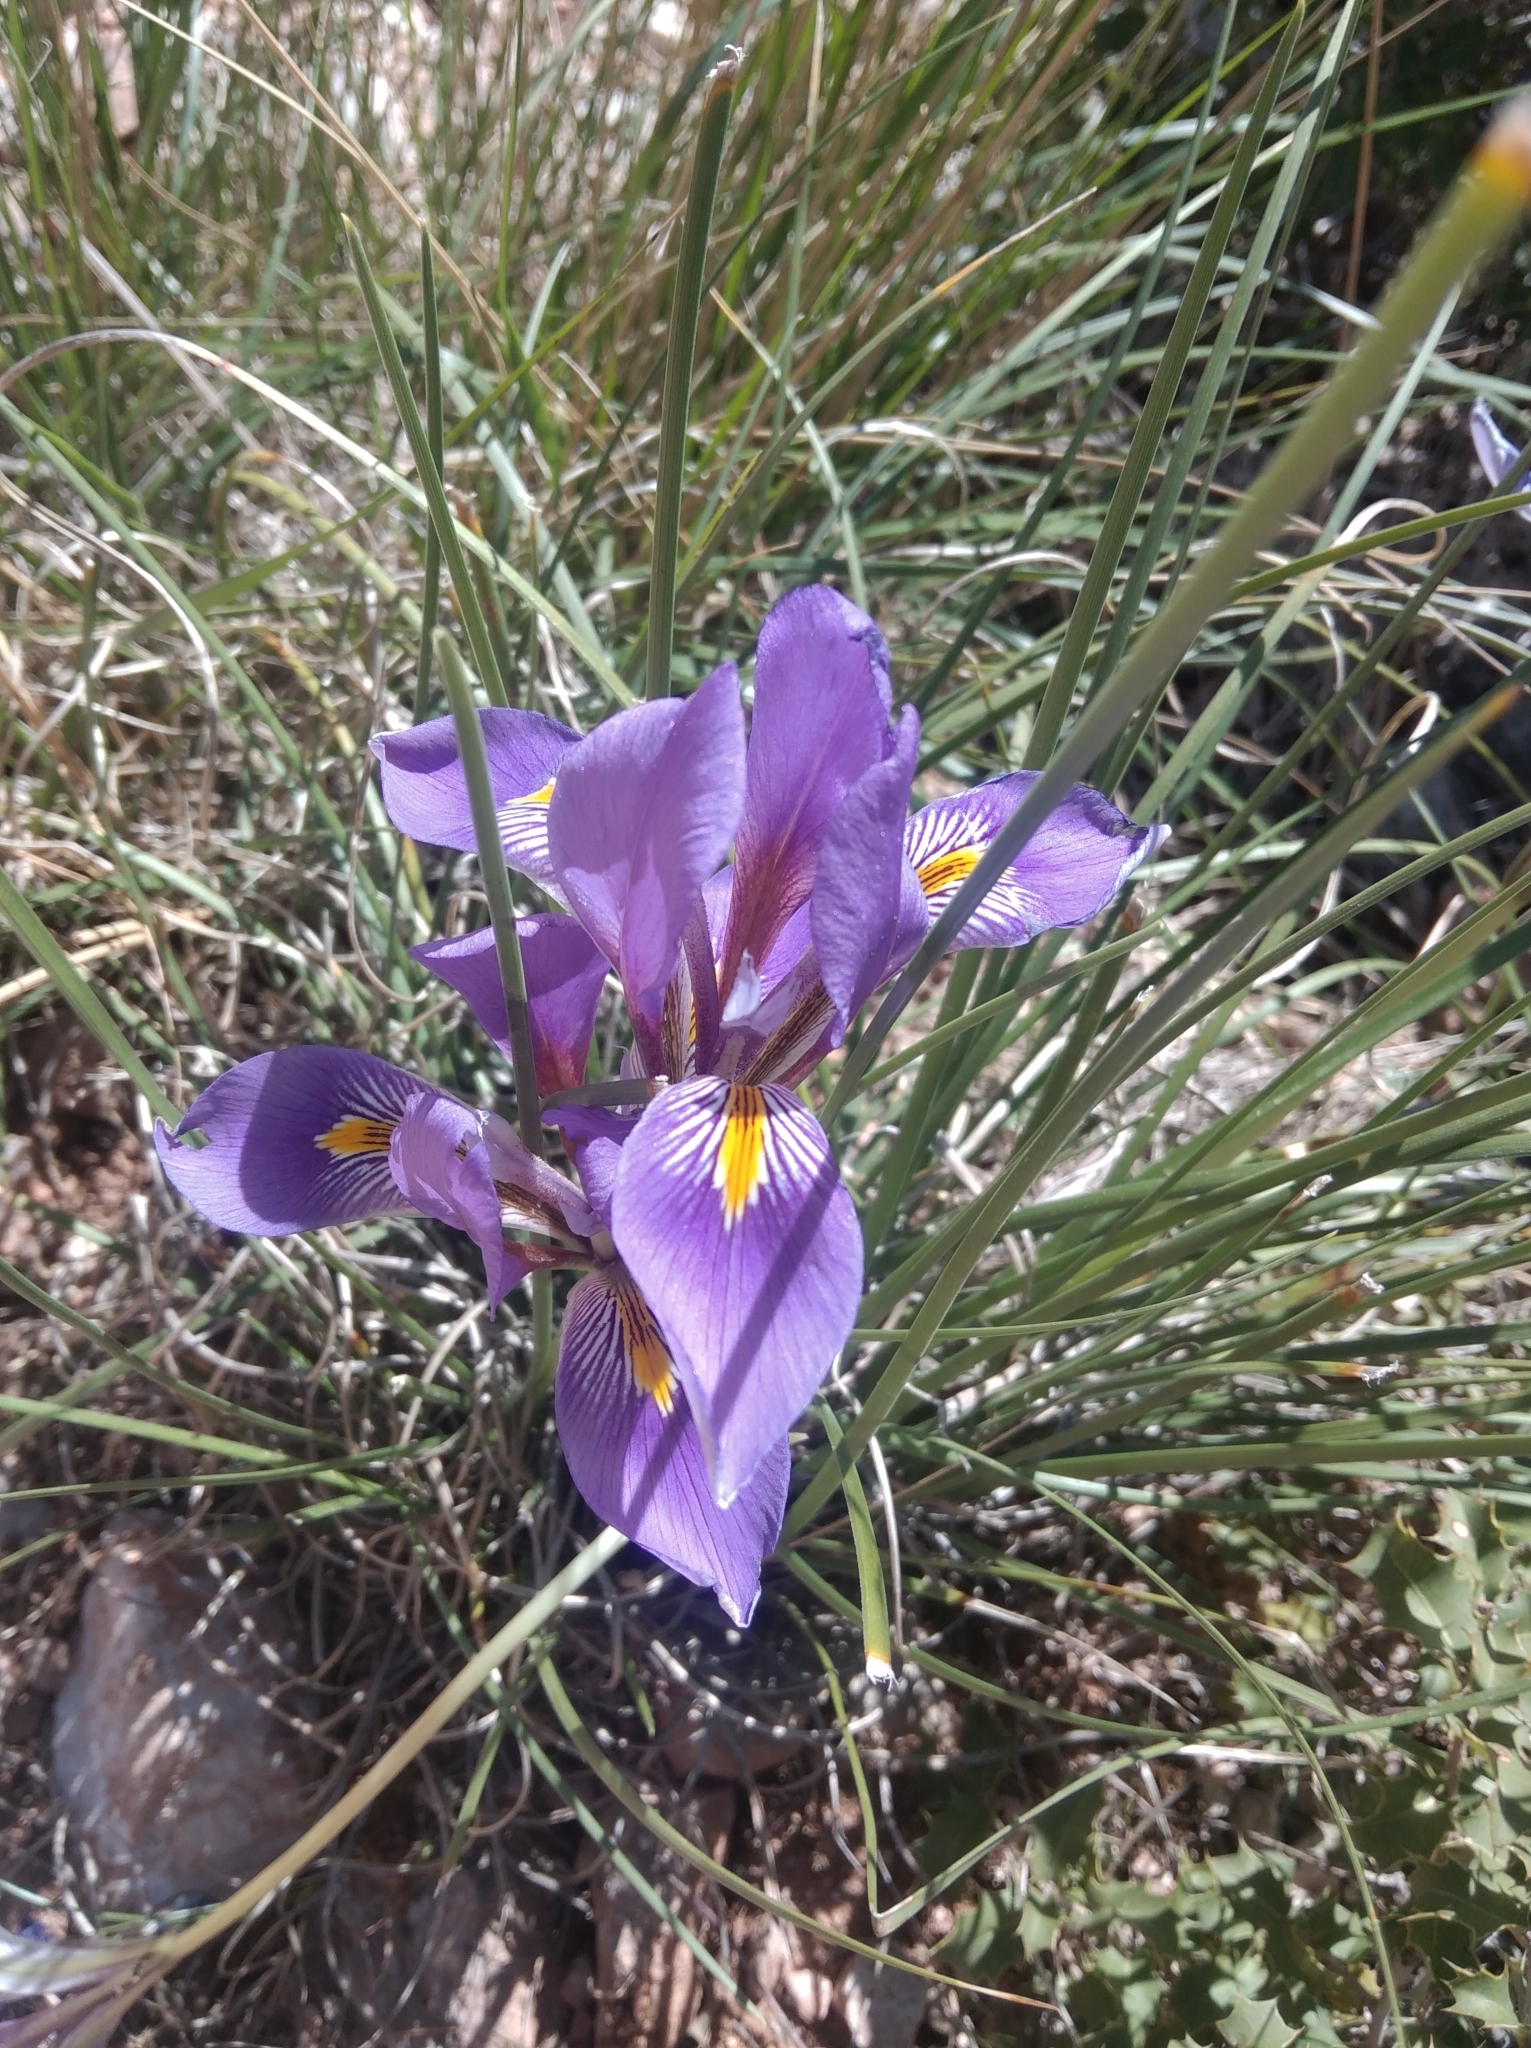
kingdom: Plantae
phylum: Tracheophyta
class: Liliopsida
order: Asparagales
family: Iridaceae
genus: Iris
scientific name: Iris unguicularis
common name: Algerian iris
